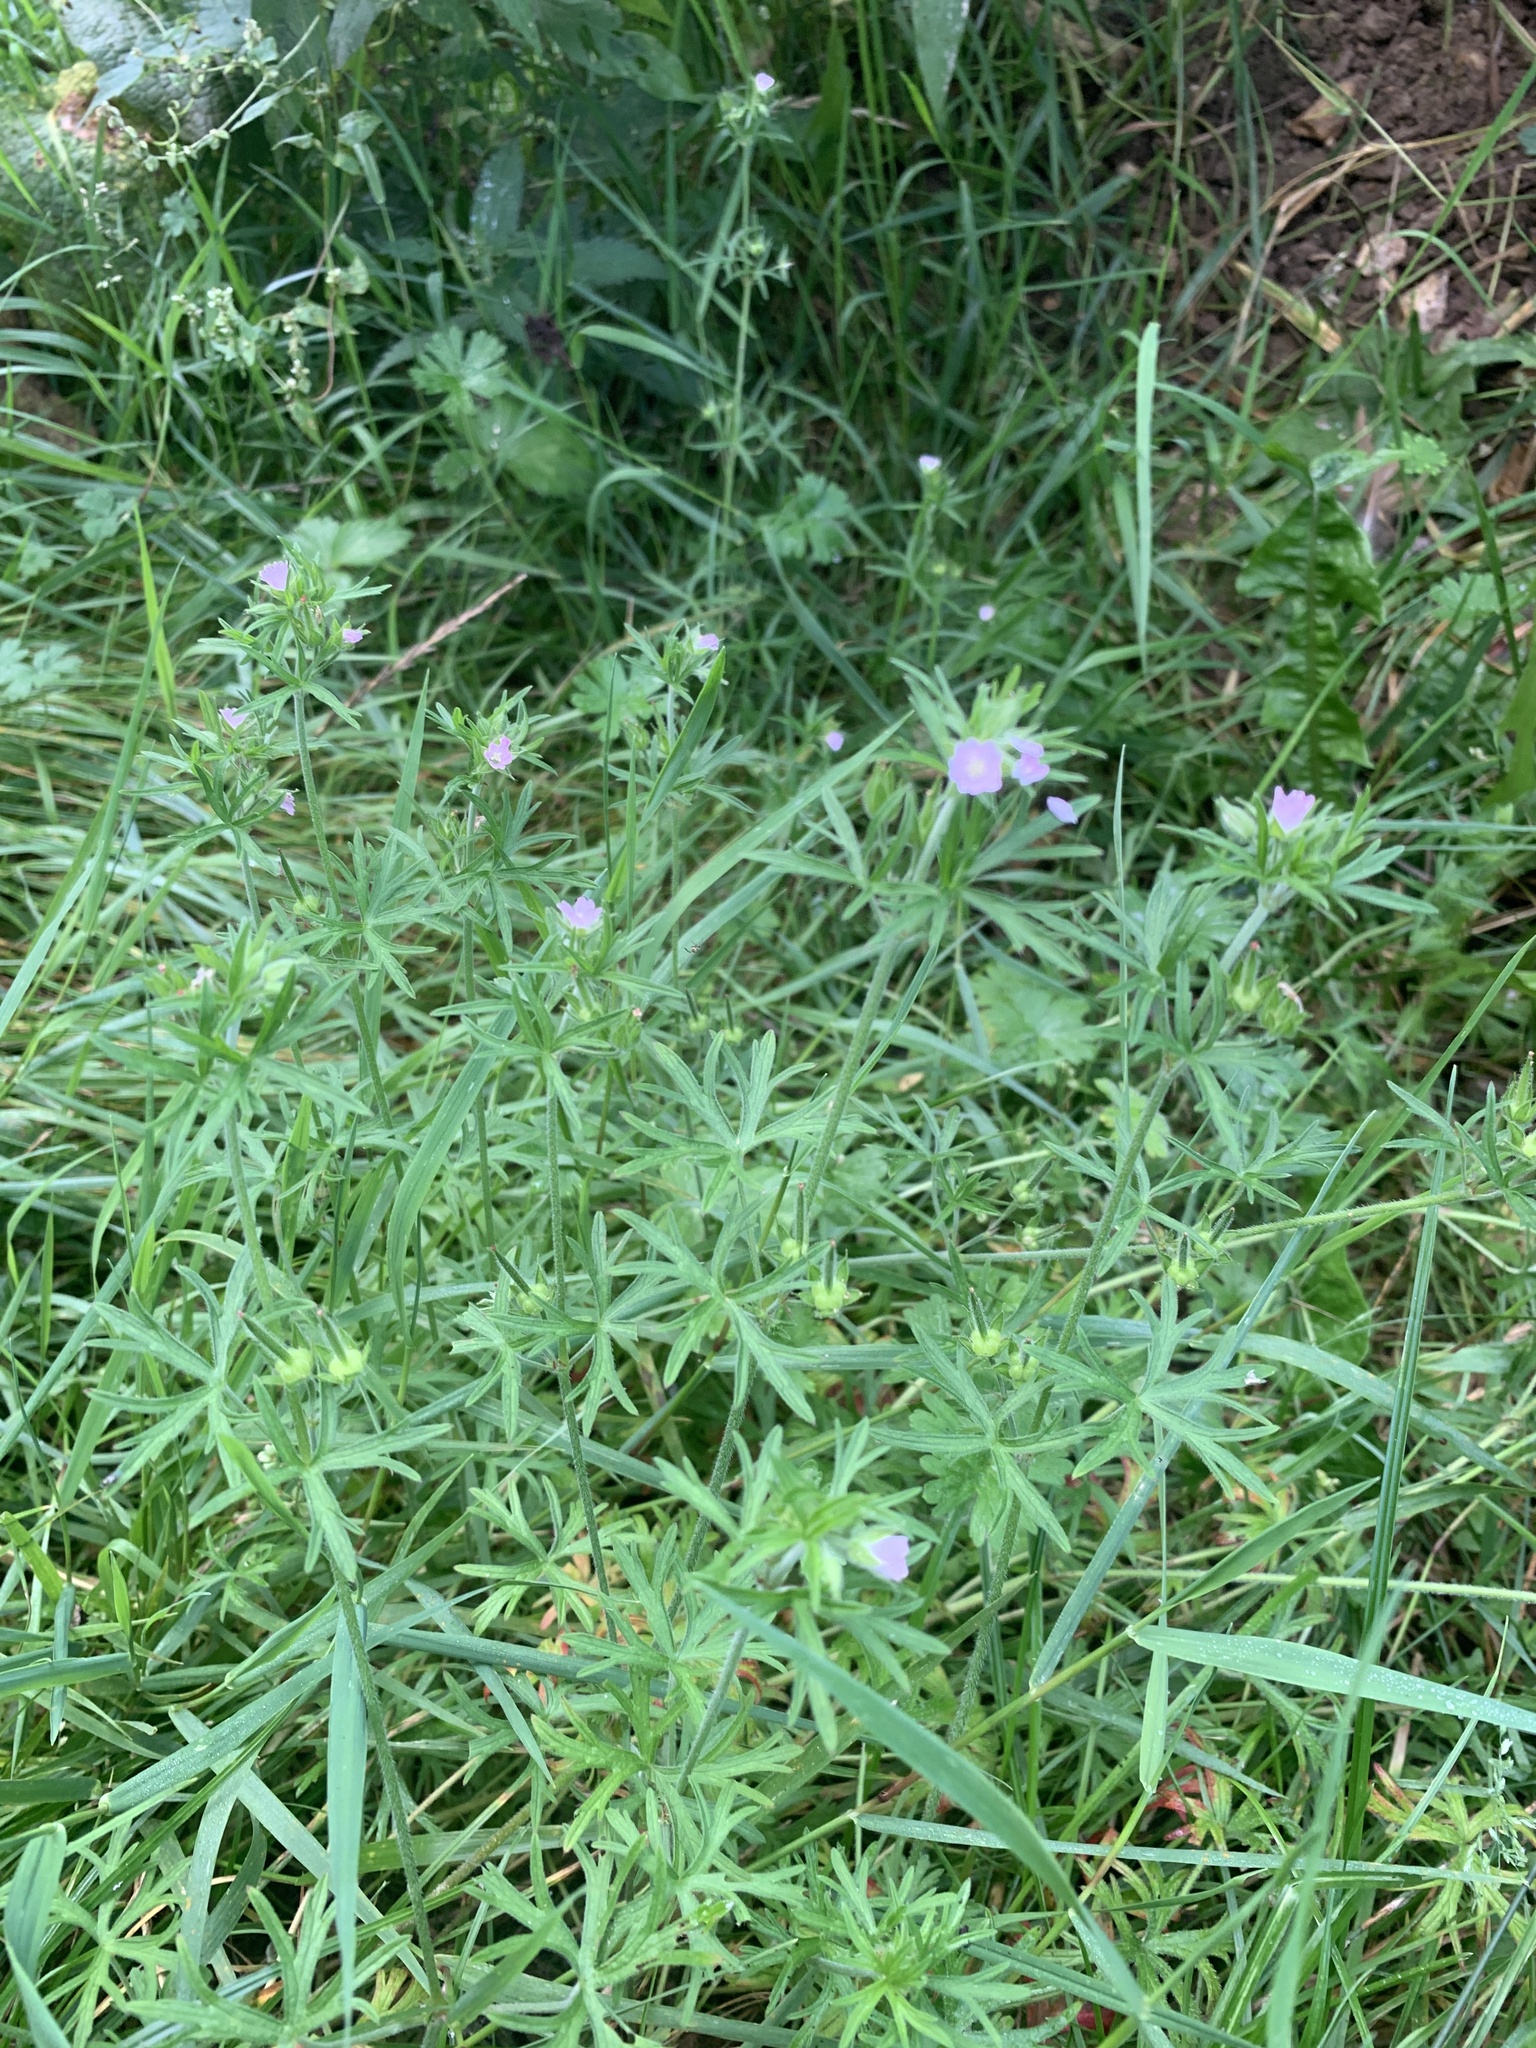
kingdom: Plantae
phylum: Tracheophyta
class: Magnoliopsida
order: Geraniales
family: Geraniaceae
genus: Geranium
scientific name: Geranium dissectum
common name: Cut-leaved crane's-bill
